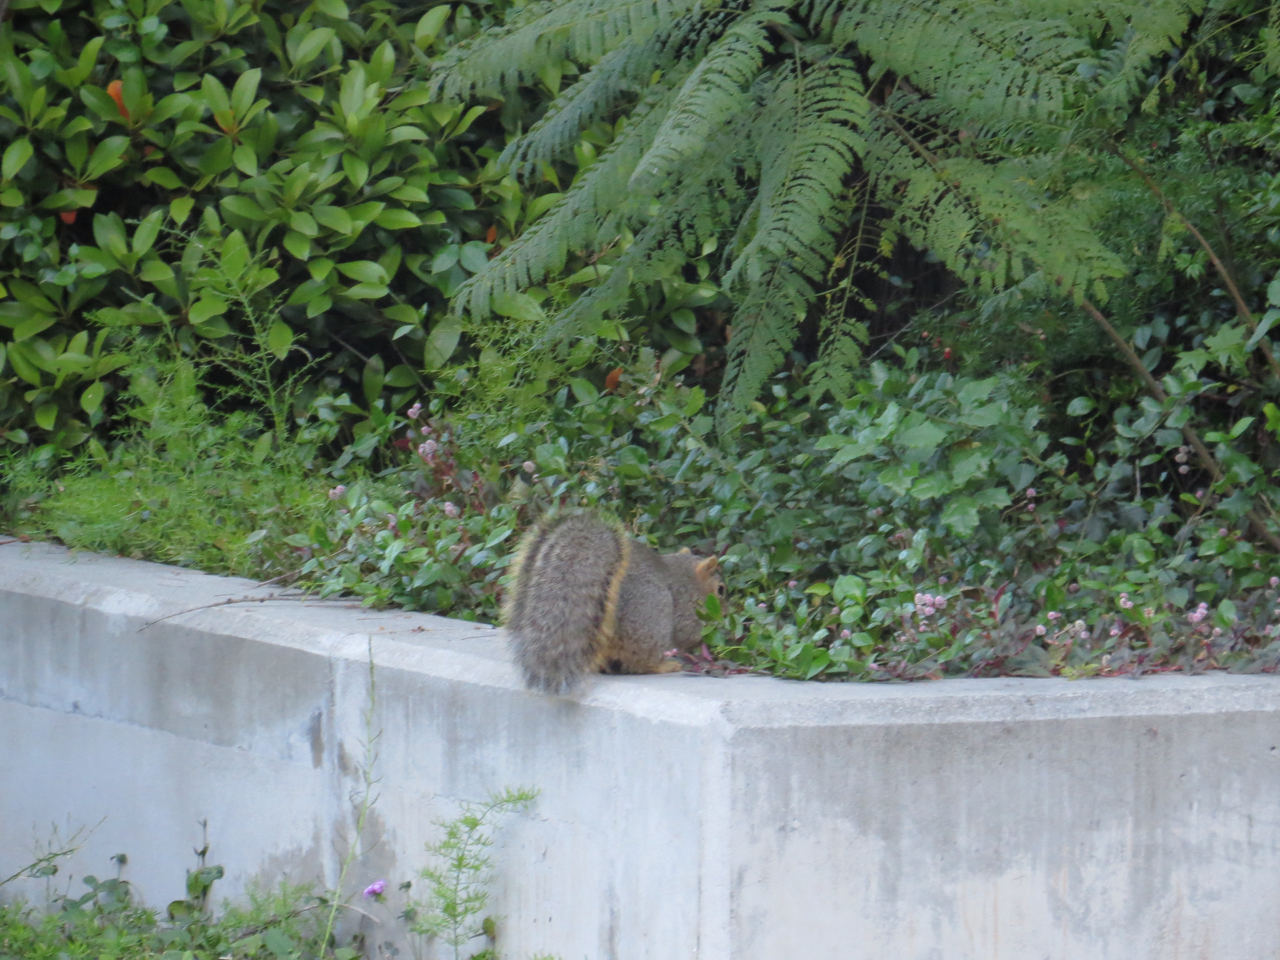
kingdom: Animalia
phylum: Chordata
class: Mammalia
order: Rodentia
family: Sciuridae
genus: Sciurus
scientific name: Sciurus niger
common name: Fox squirrel
